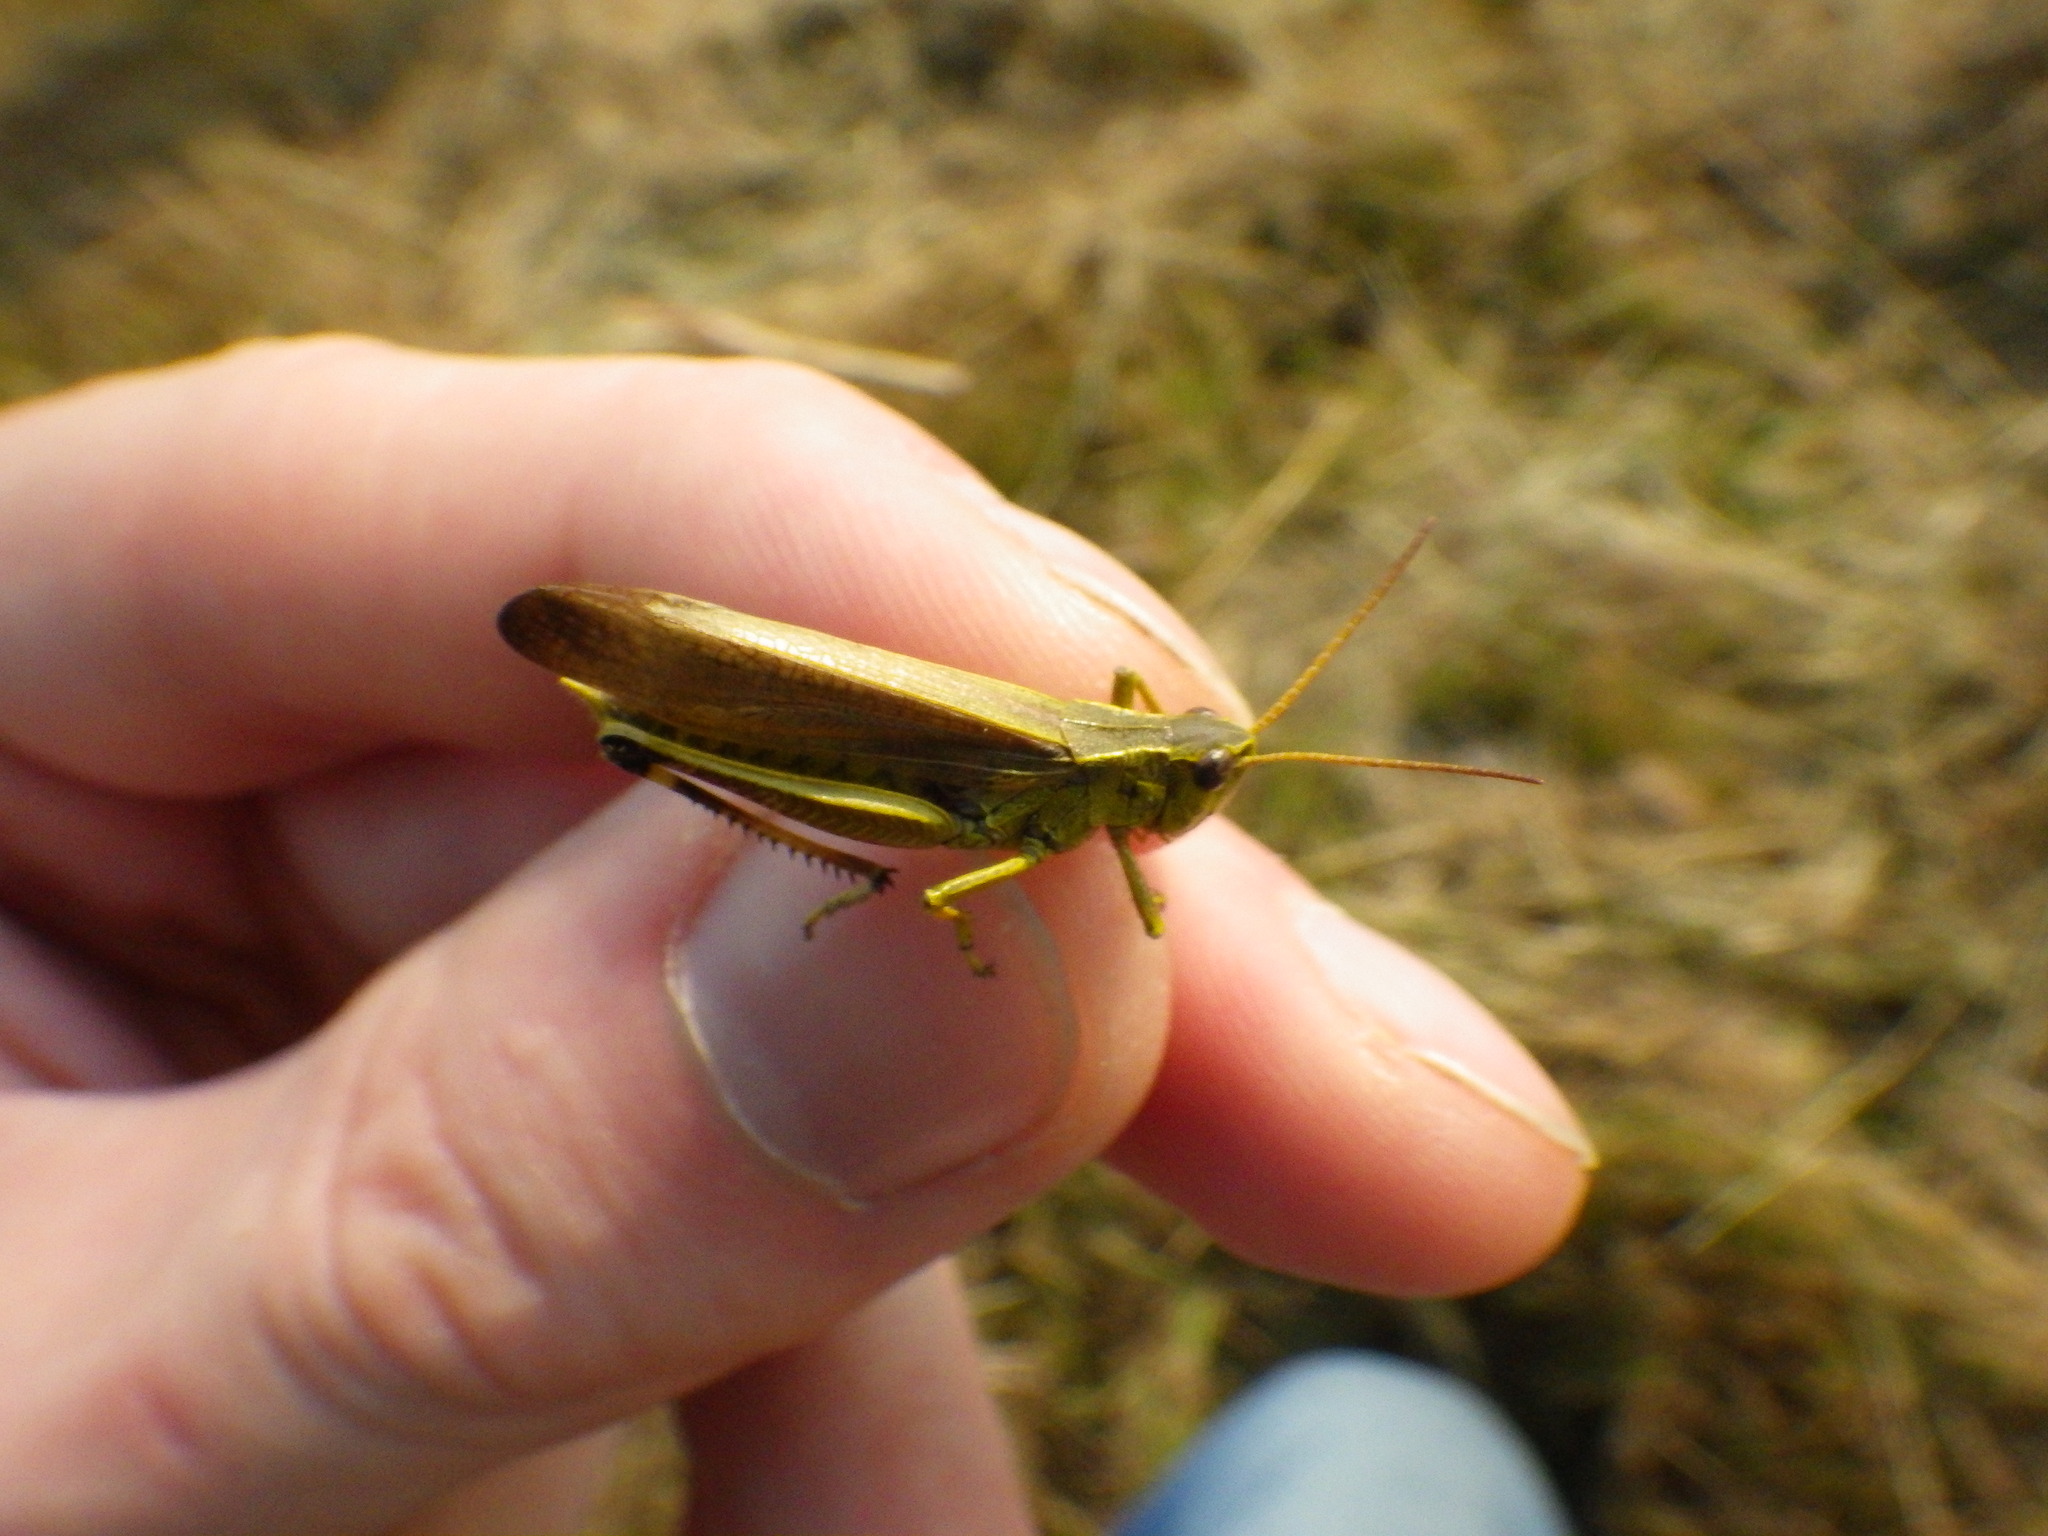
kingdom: Animalia
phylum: Arthropoda
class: Insecta
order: Orthoptera
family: Acrididae
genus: Stethophyma
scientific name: Stethophyma gracile
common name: Graceful sedge grasshopper
